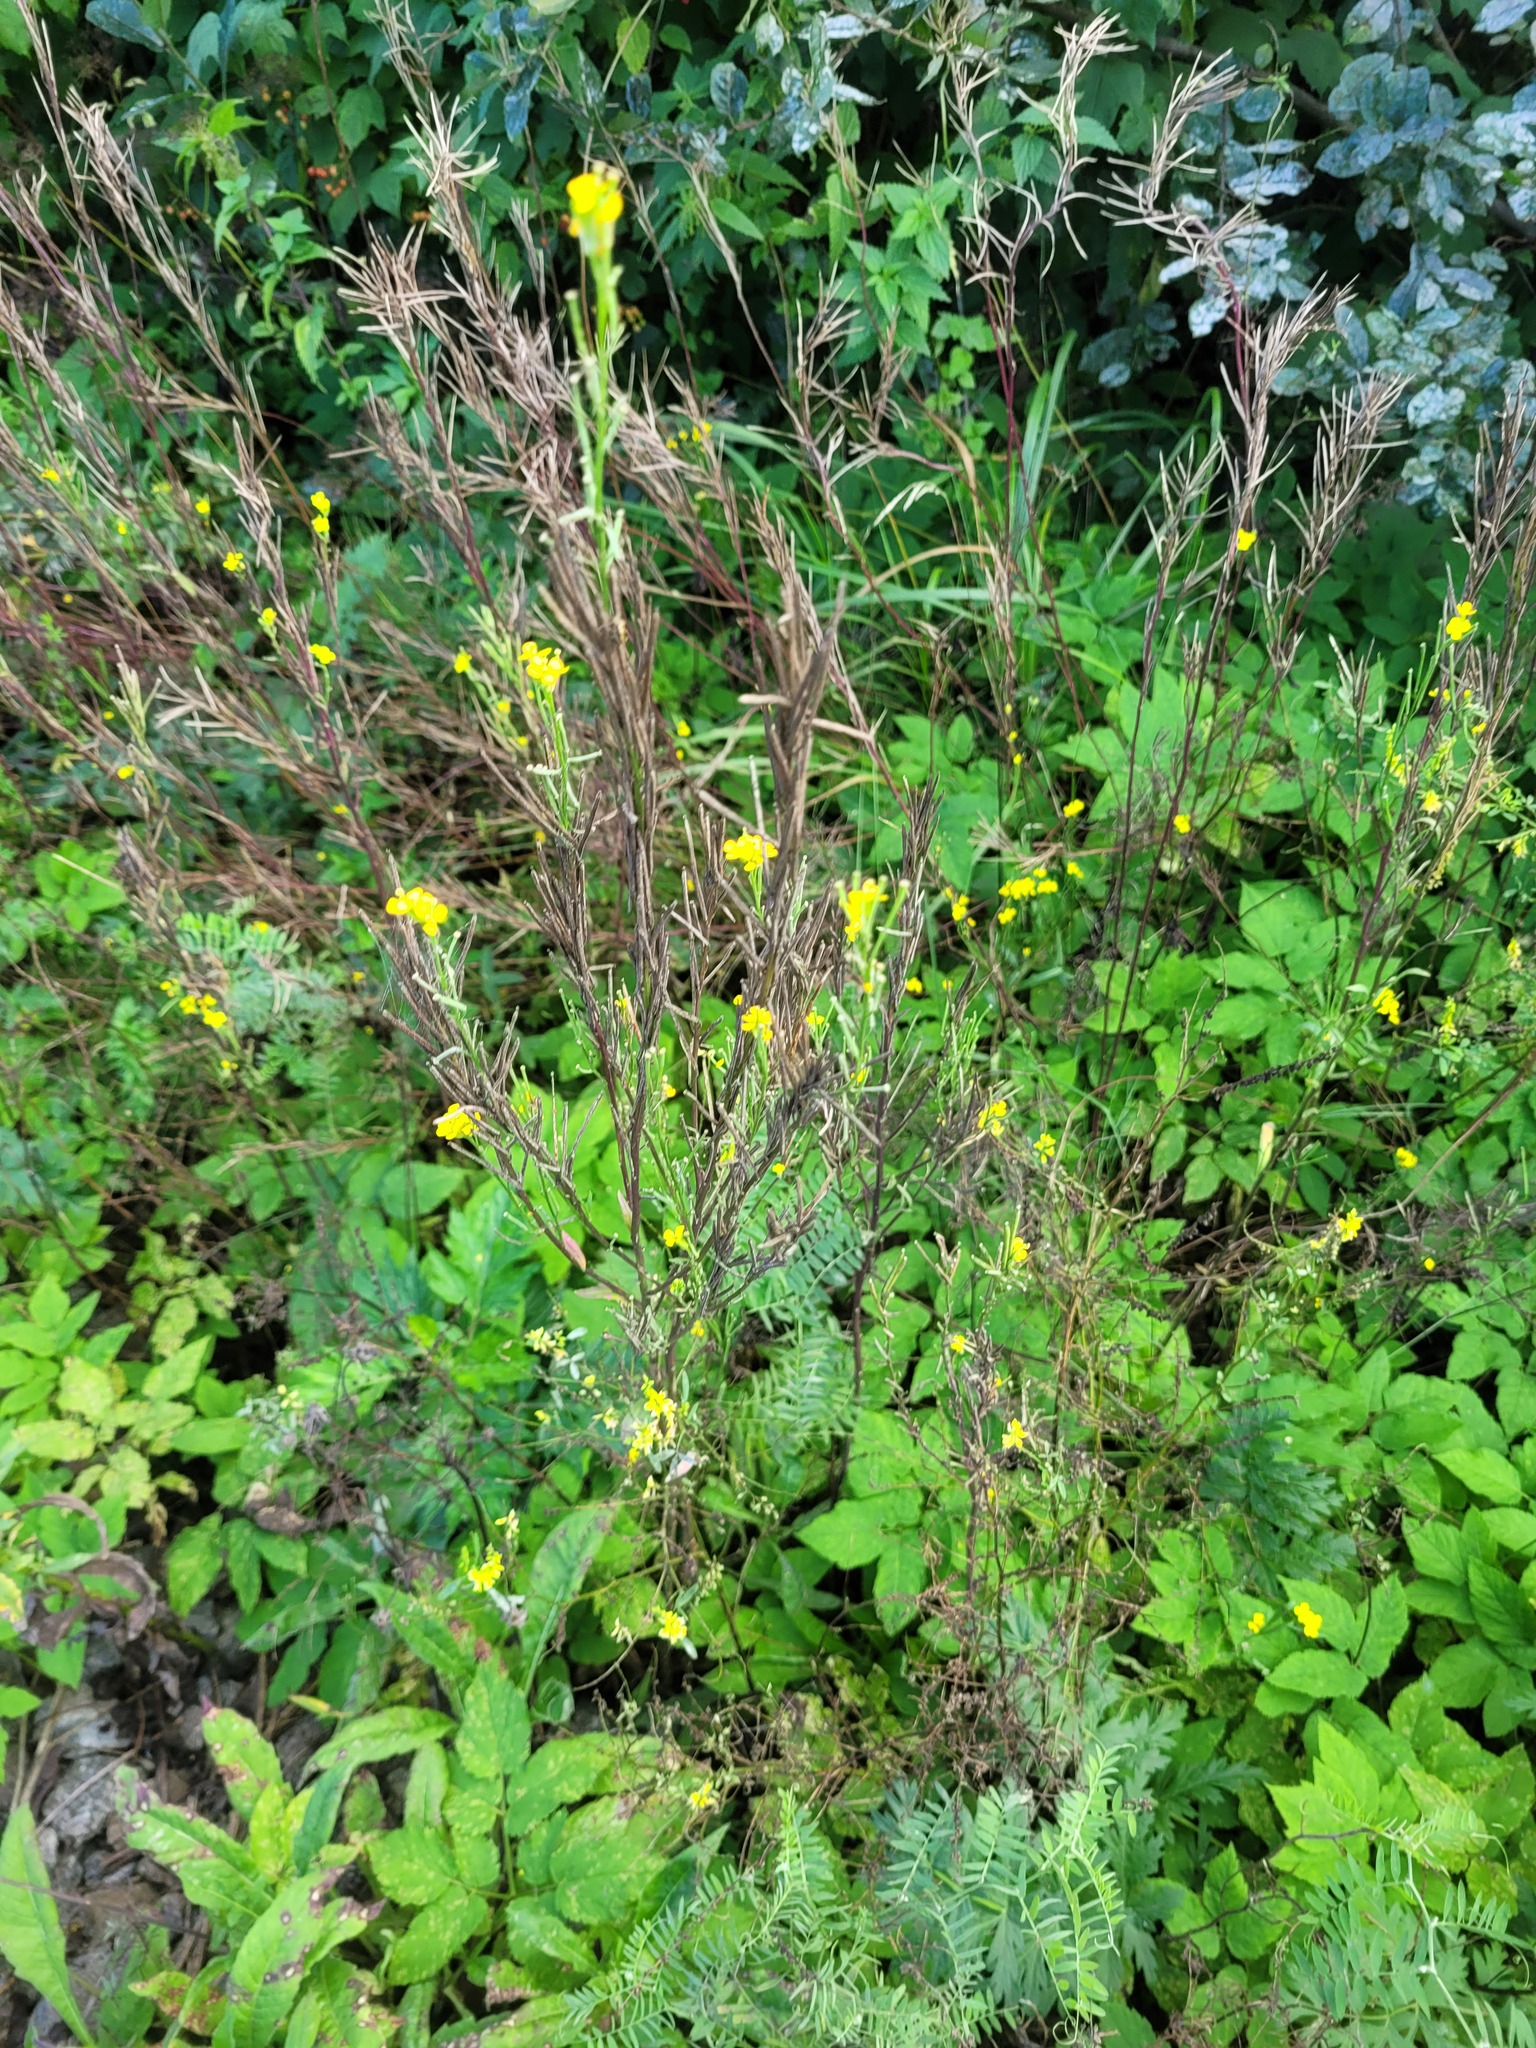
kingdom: Plantae
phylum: Tracheophyta
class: Magnoliopsida
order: Brassicales
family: Brassicaceae
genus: Erysimum
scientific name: Erysimum hieraciifolium
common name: European wallflower
